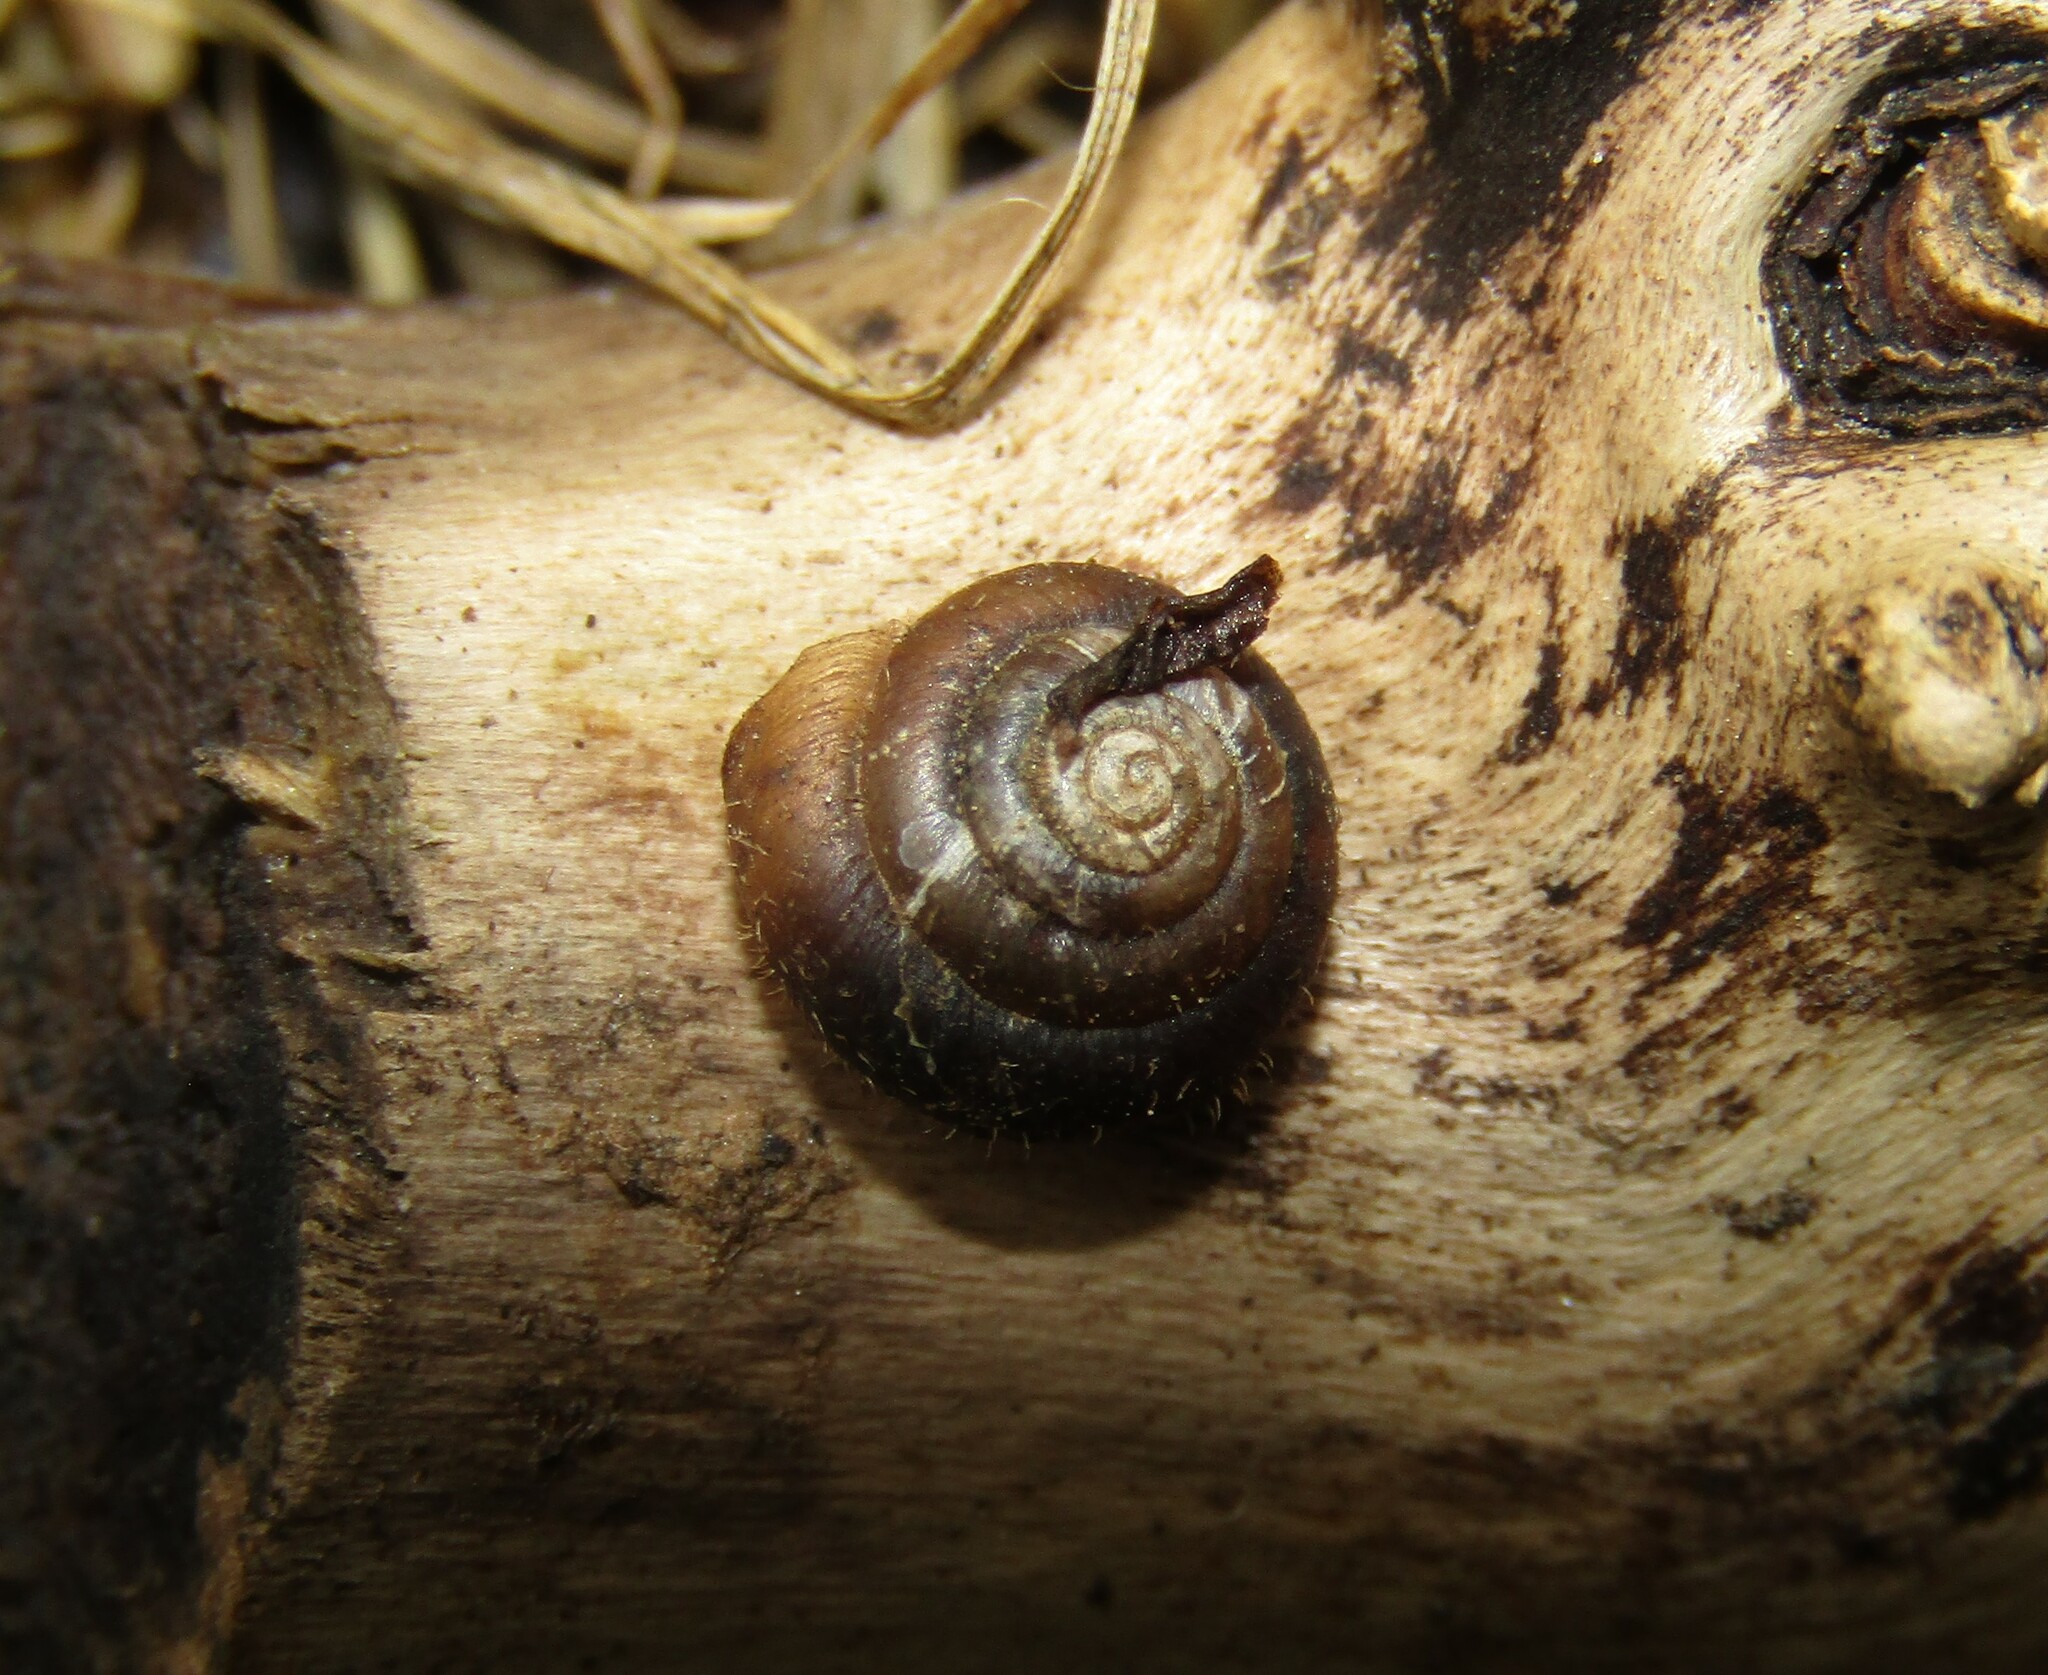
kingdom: Animalia
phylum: Mollusca
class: Gastropoda
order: Stylommatophora
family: Hygromiidae
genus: Trochulus
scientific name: Trochulus hispidus
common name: Hairy snail
